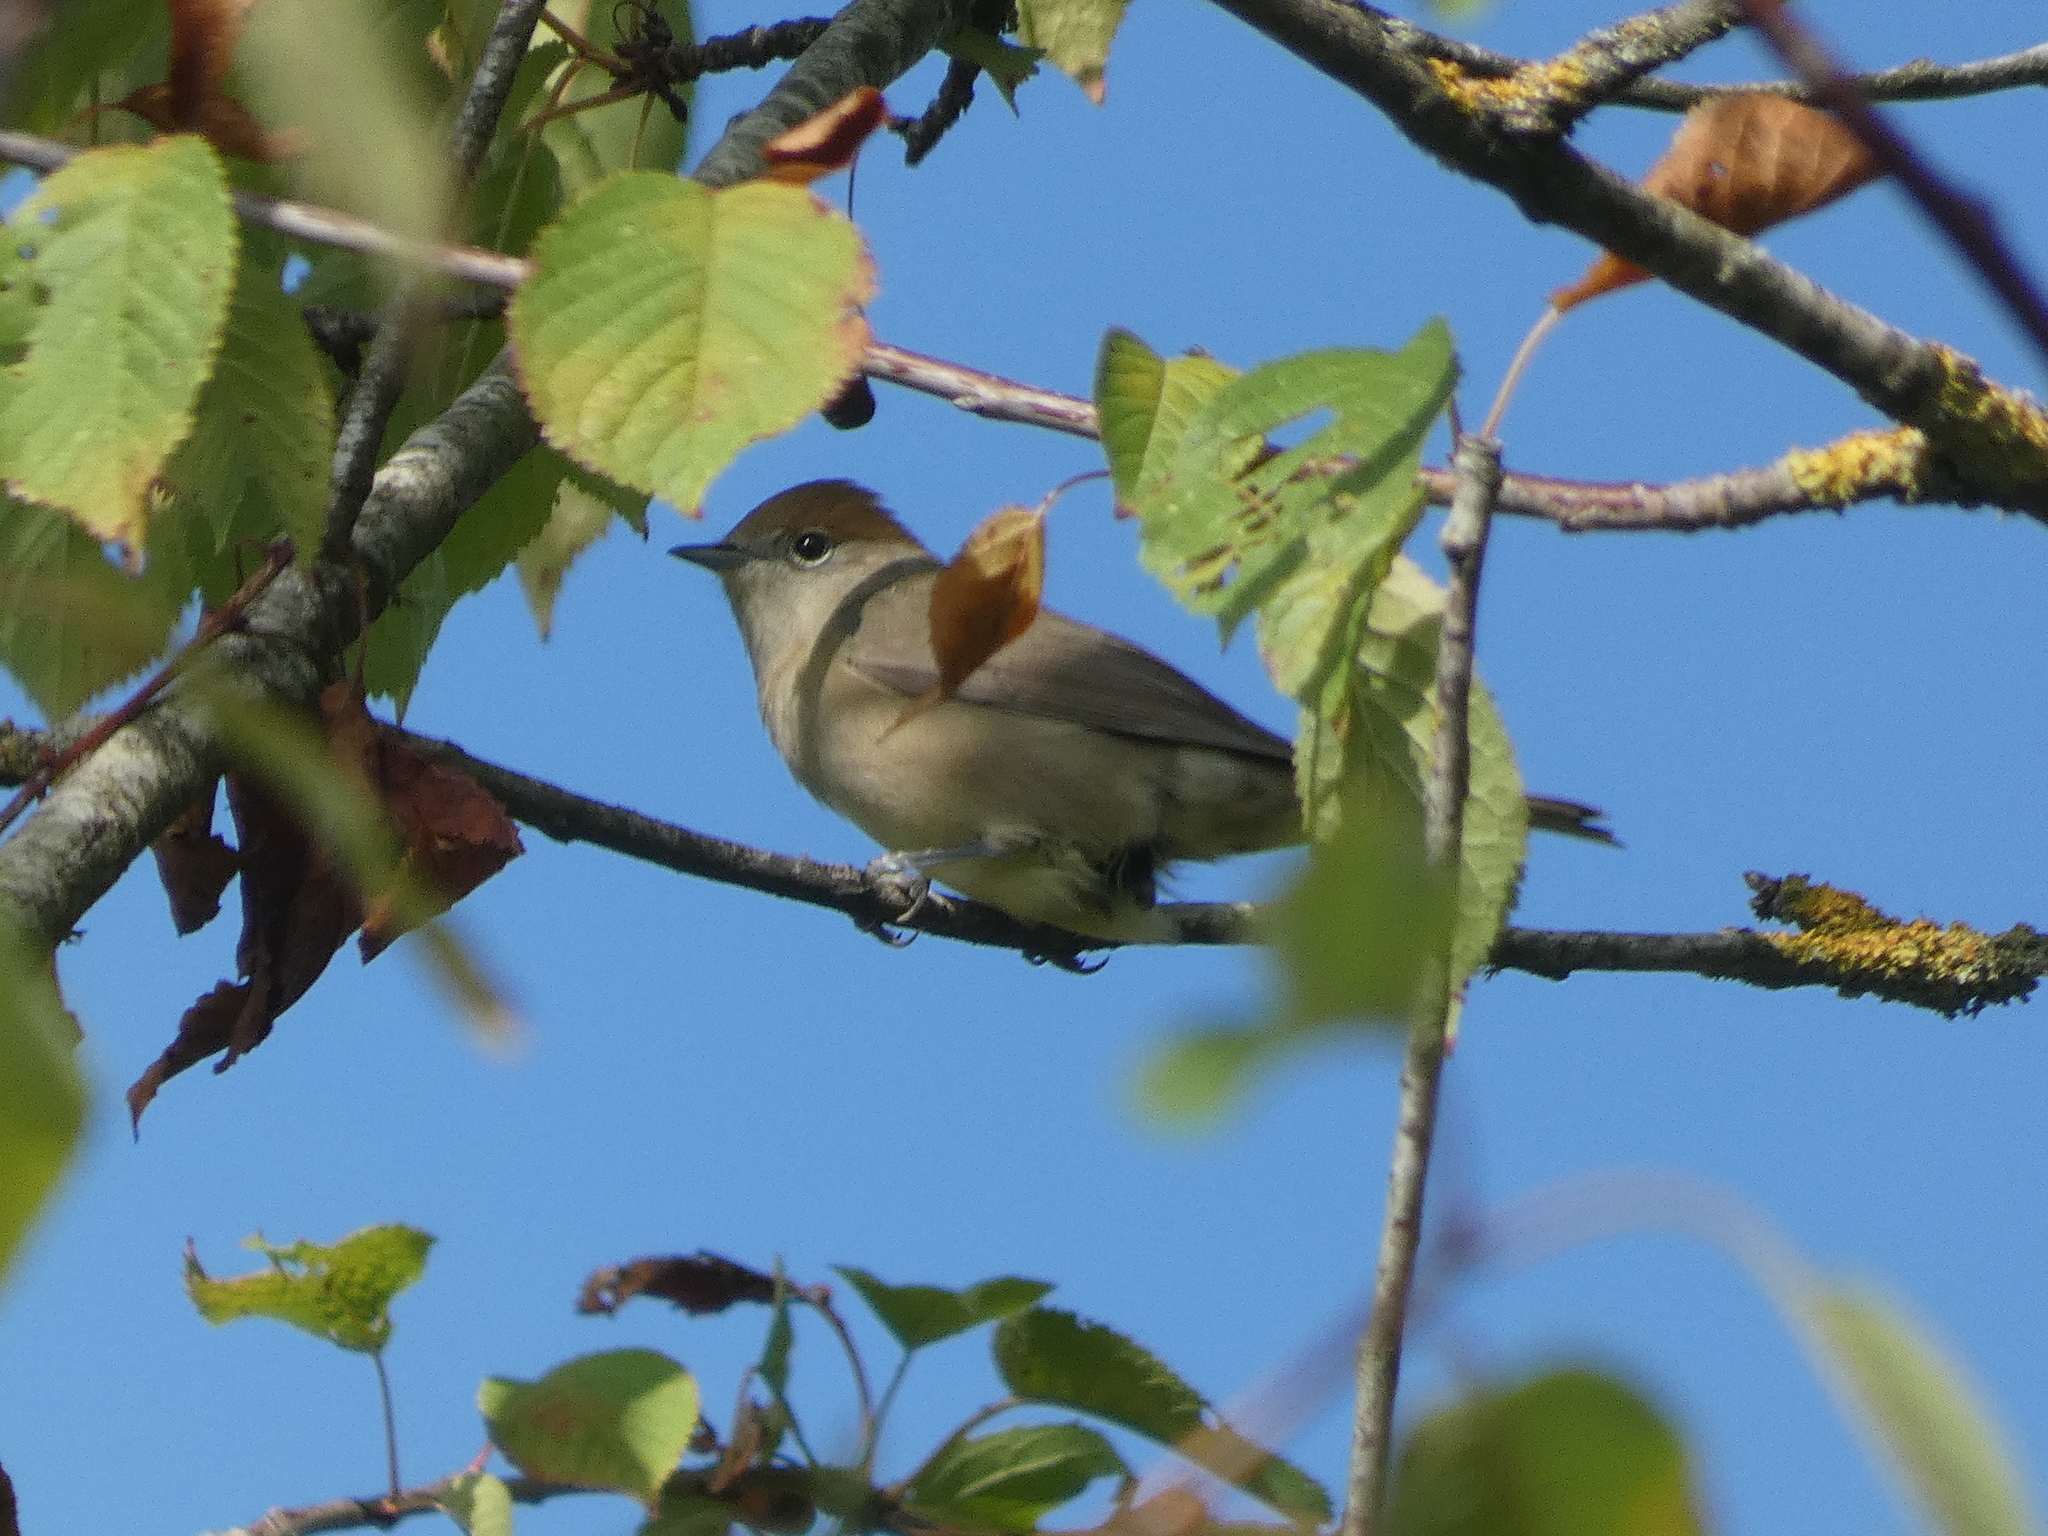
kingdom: Animalia
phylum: Chordata
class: Aves
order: Passeriformes
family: Sylviidae
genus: Sylvia
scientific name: Sylvia atricapilla
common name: Eurasian blackcap
